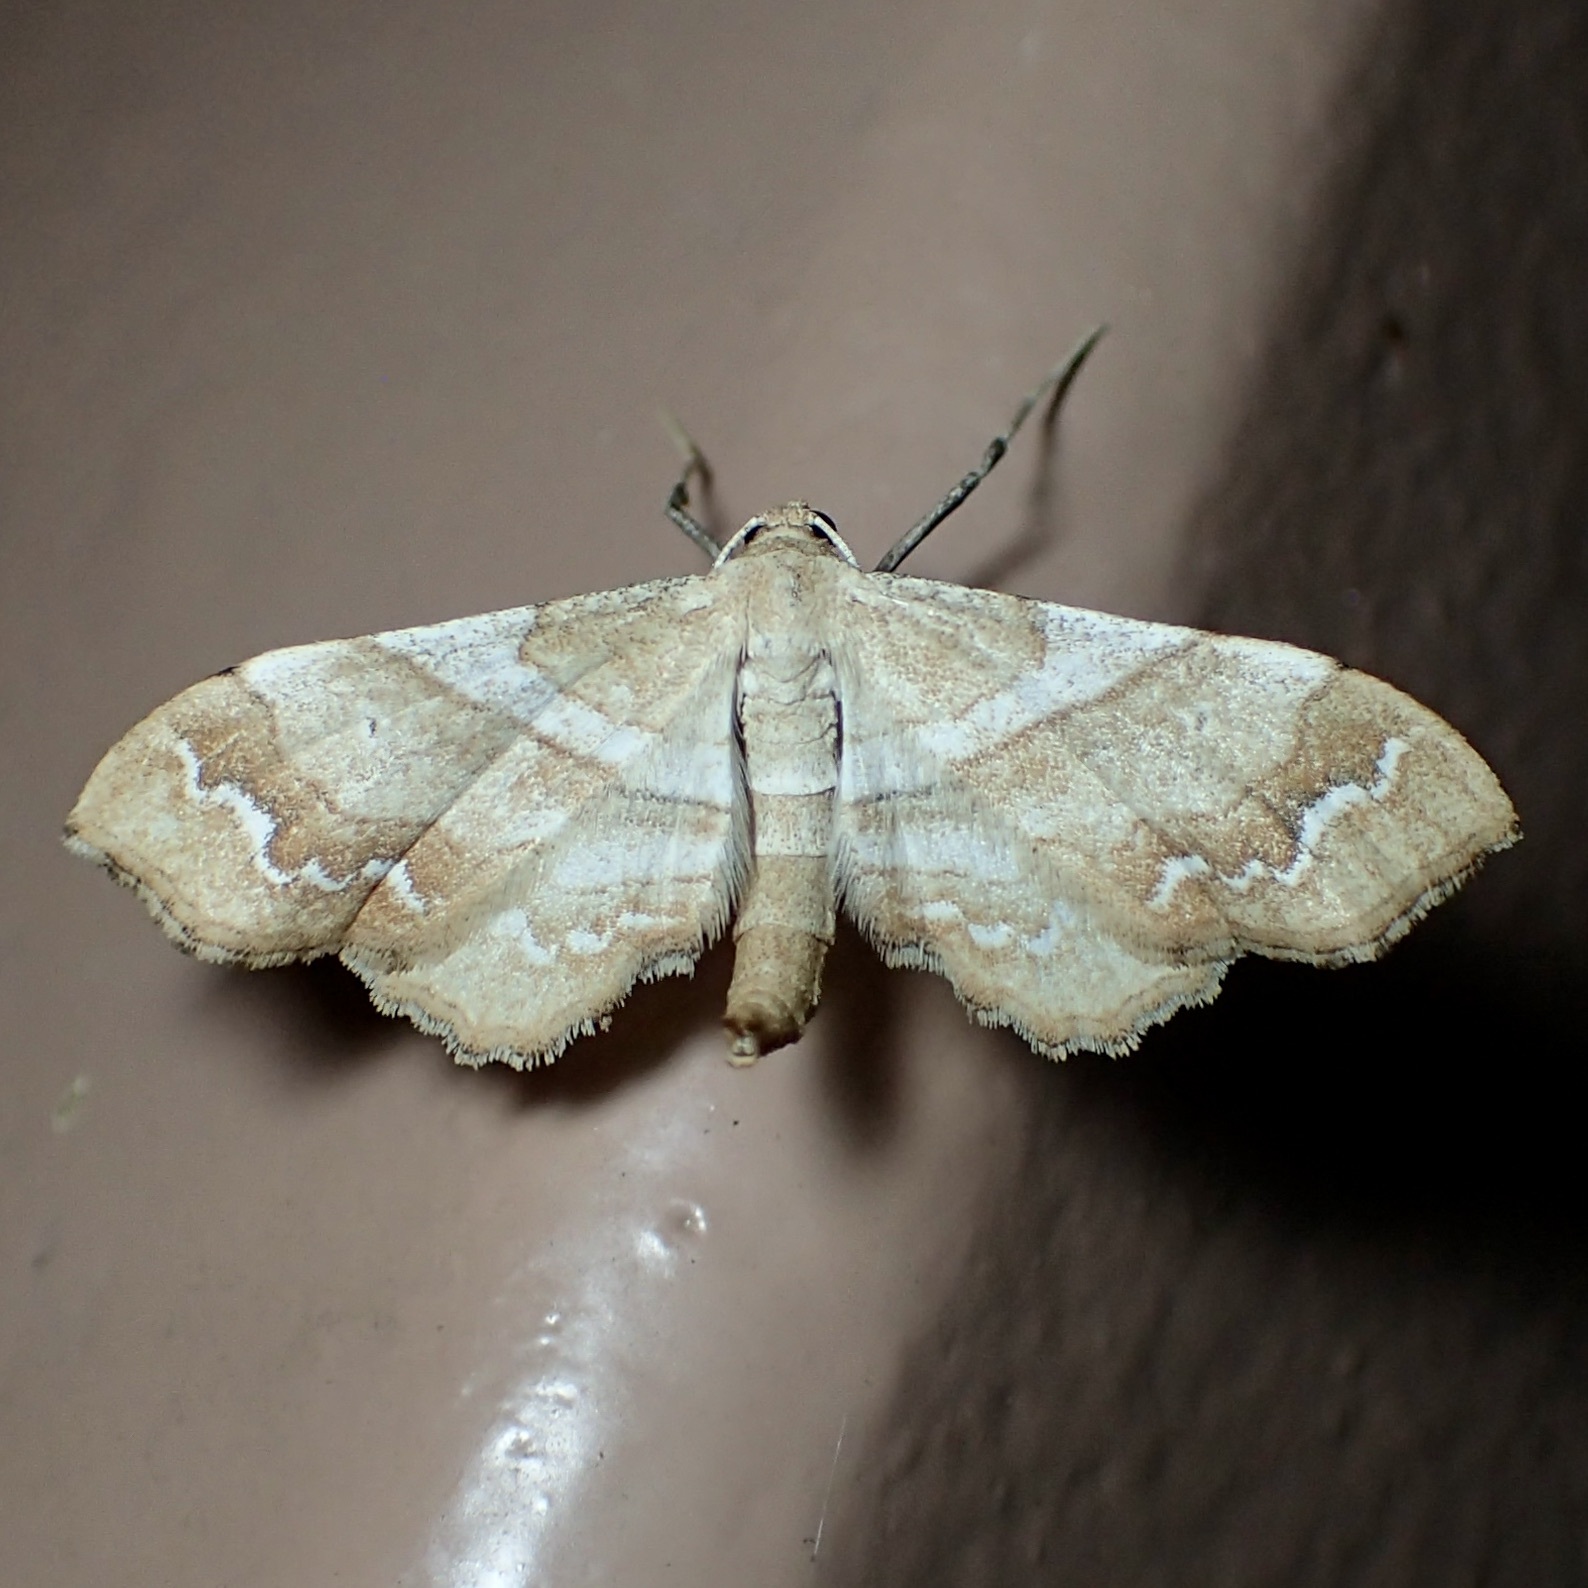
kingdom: Animalia
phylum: Arthropoda
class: Insecta
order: Lepidoptera
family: Geometridae
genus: Odontoptila
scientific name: Odontoptila obrimo
